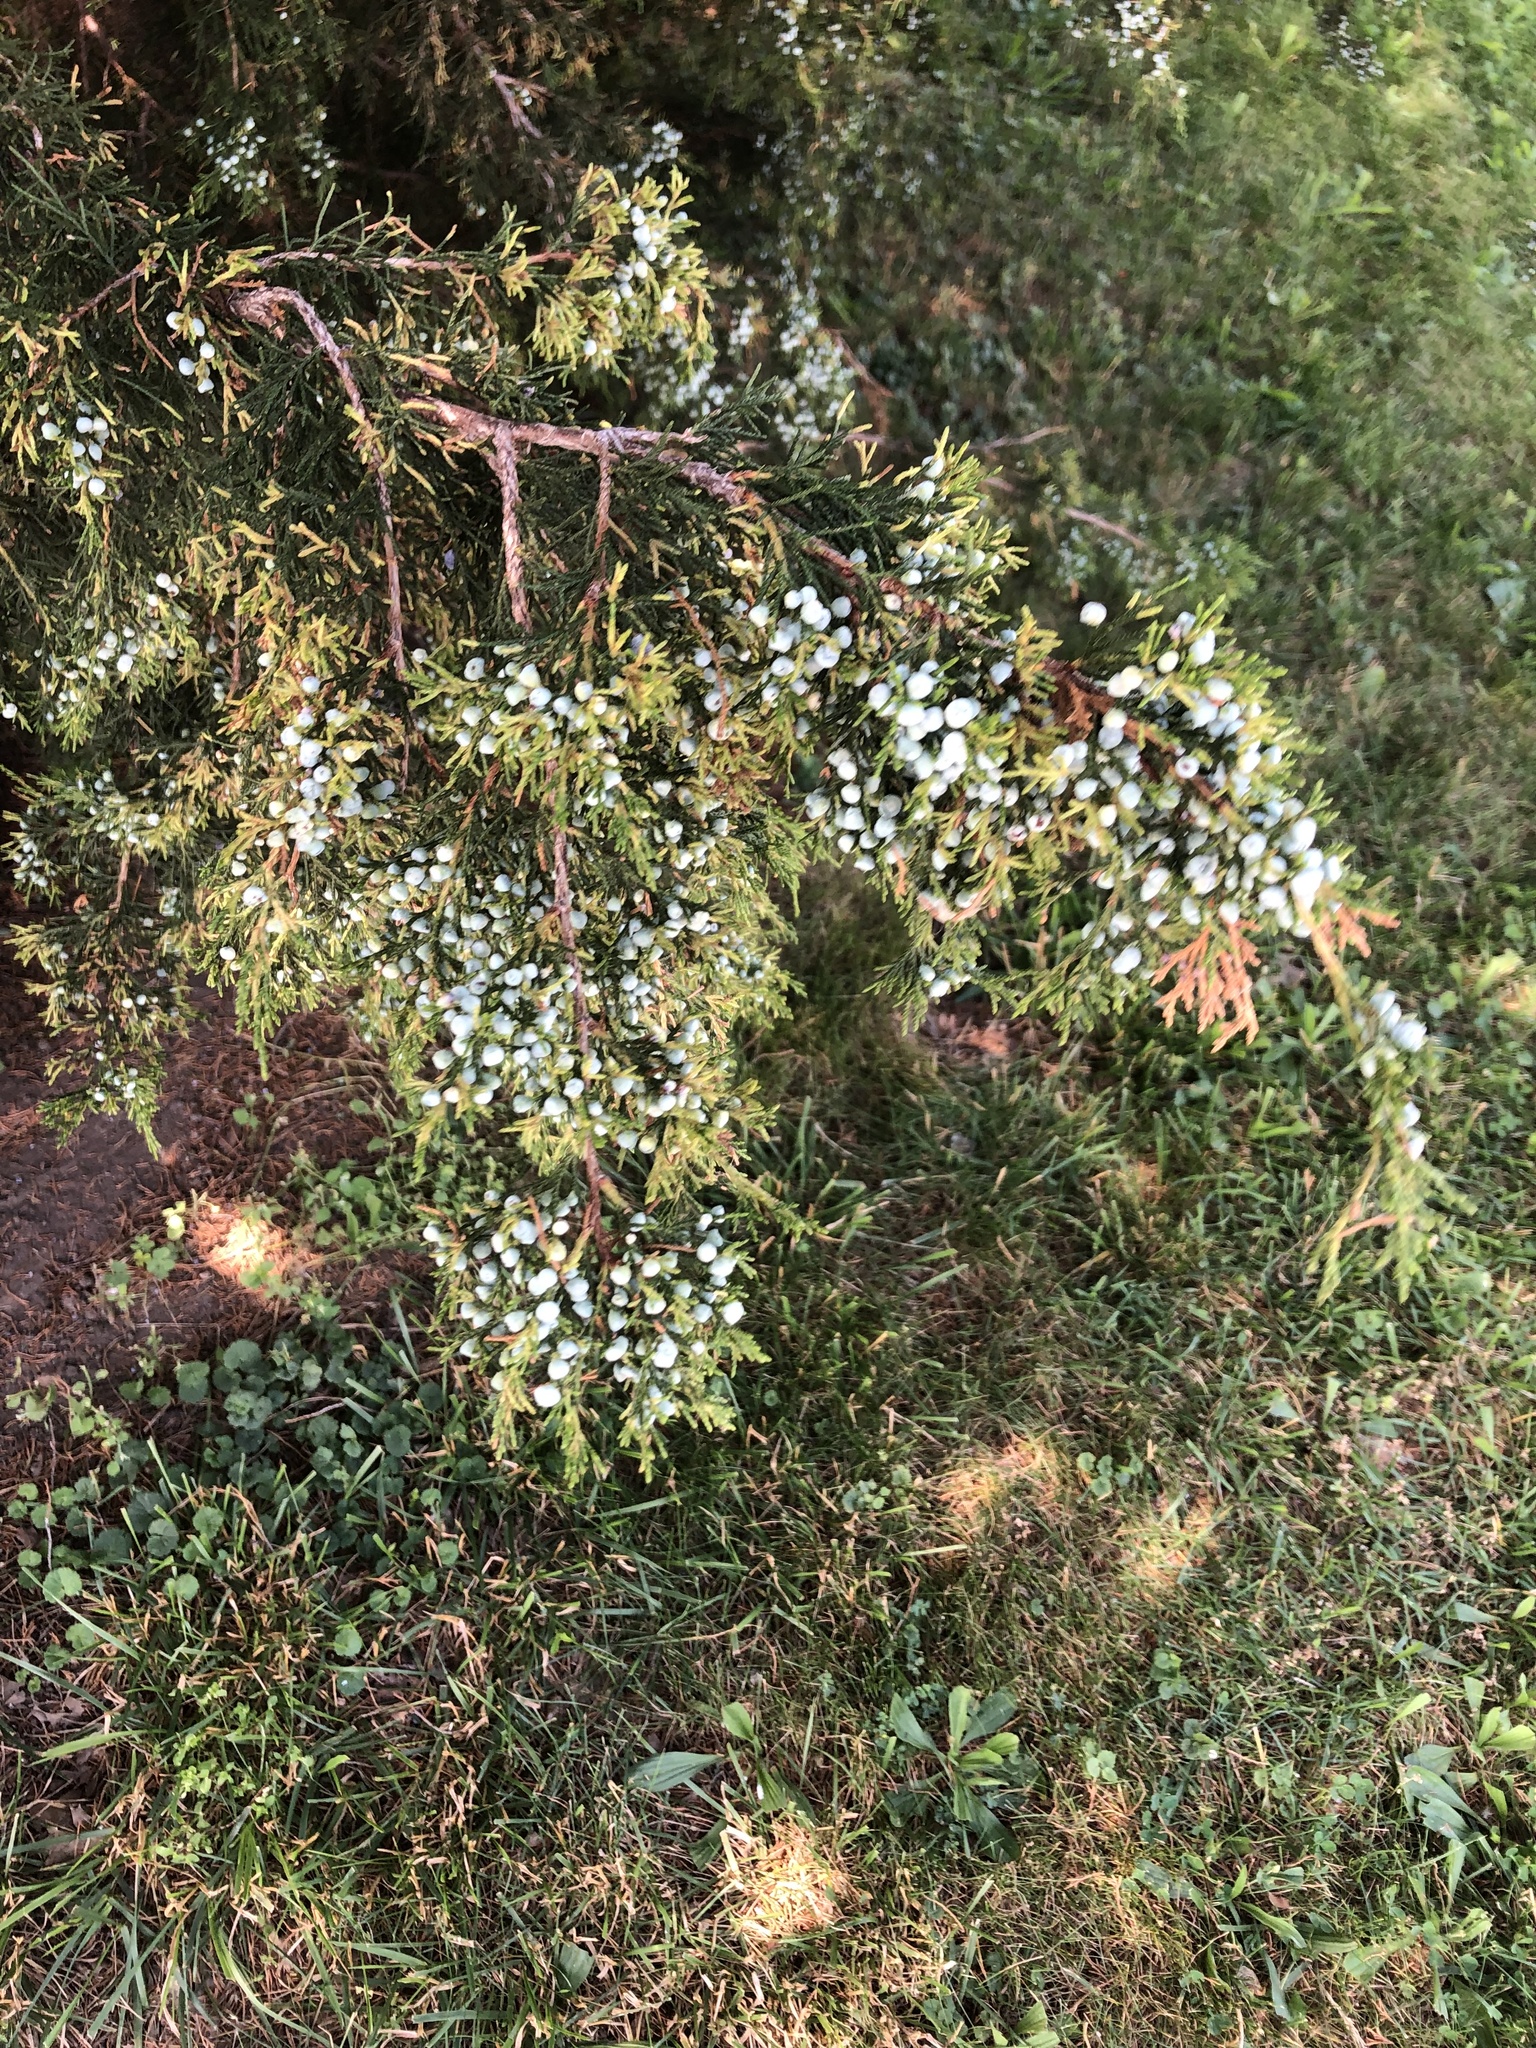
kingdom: Plantae
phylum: Tracheophyta
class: Pinopsida
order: Pinales
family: Cupressaceae
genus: Juniperus
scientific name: Juniperus virginiana
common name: Red juniper
